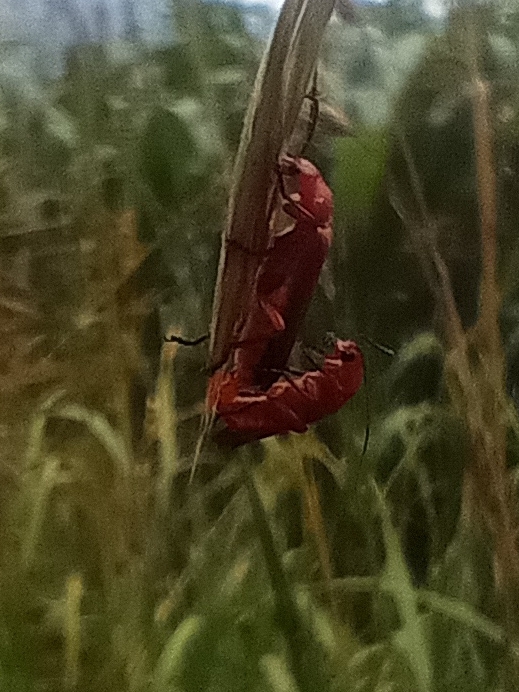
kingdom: Animalia
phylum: Arthropoda
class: Insecta
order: Coleoptera
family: Cantharidae
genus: Rhagonycha
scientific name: Rhagonycha fulva
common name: Common red soldier beetle
